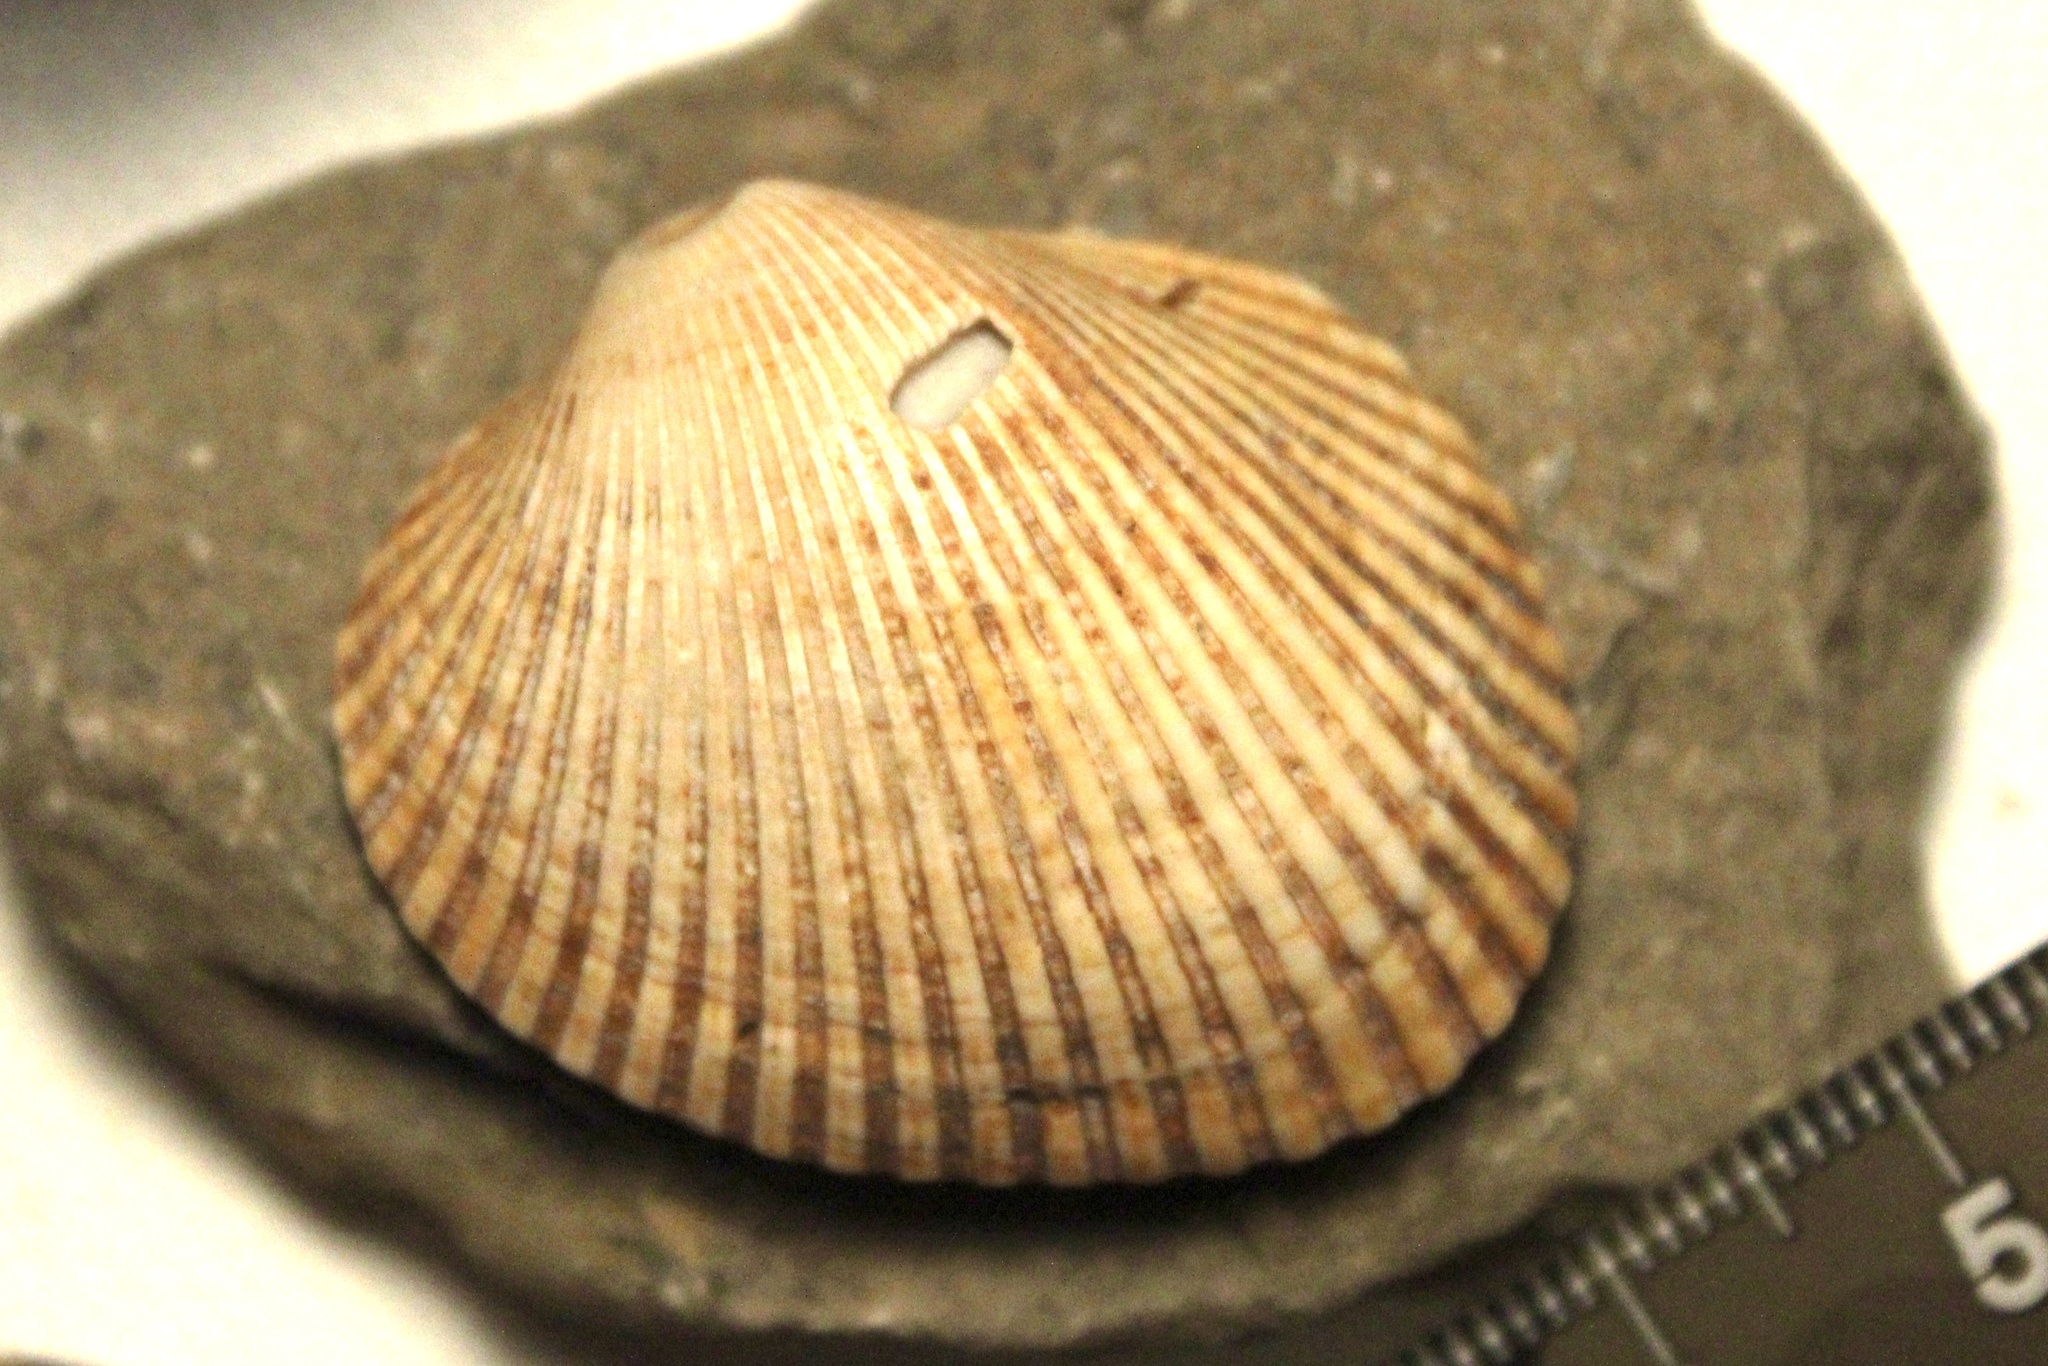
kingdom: Animalia
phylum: Mollusca
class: Bivalvia
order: Arcida
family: Arcidae
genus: Lunarca
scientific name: Lunarca ovalis
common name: Blood ark
